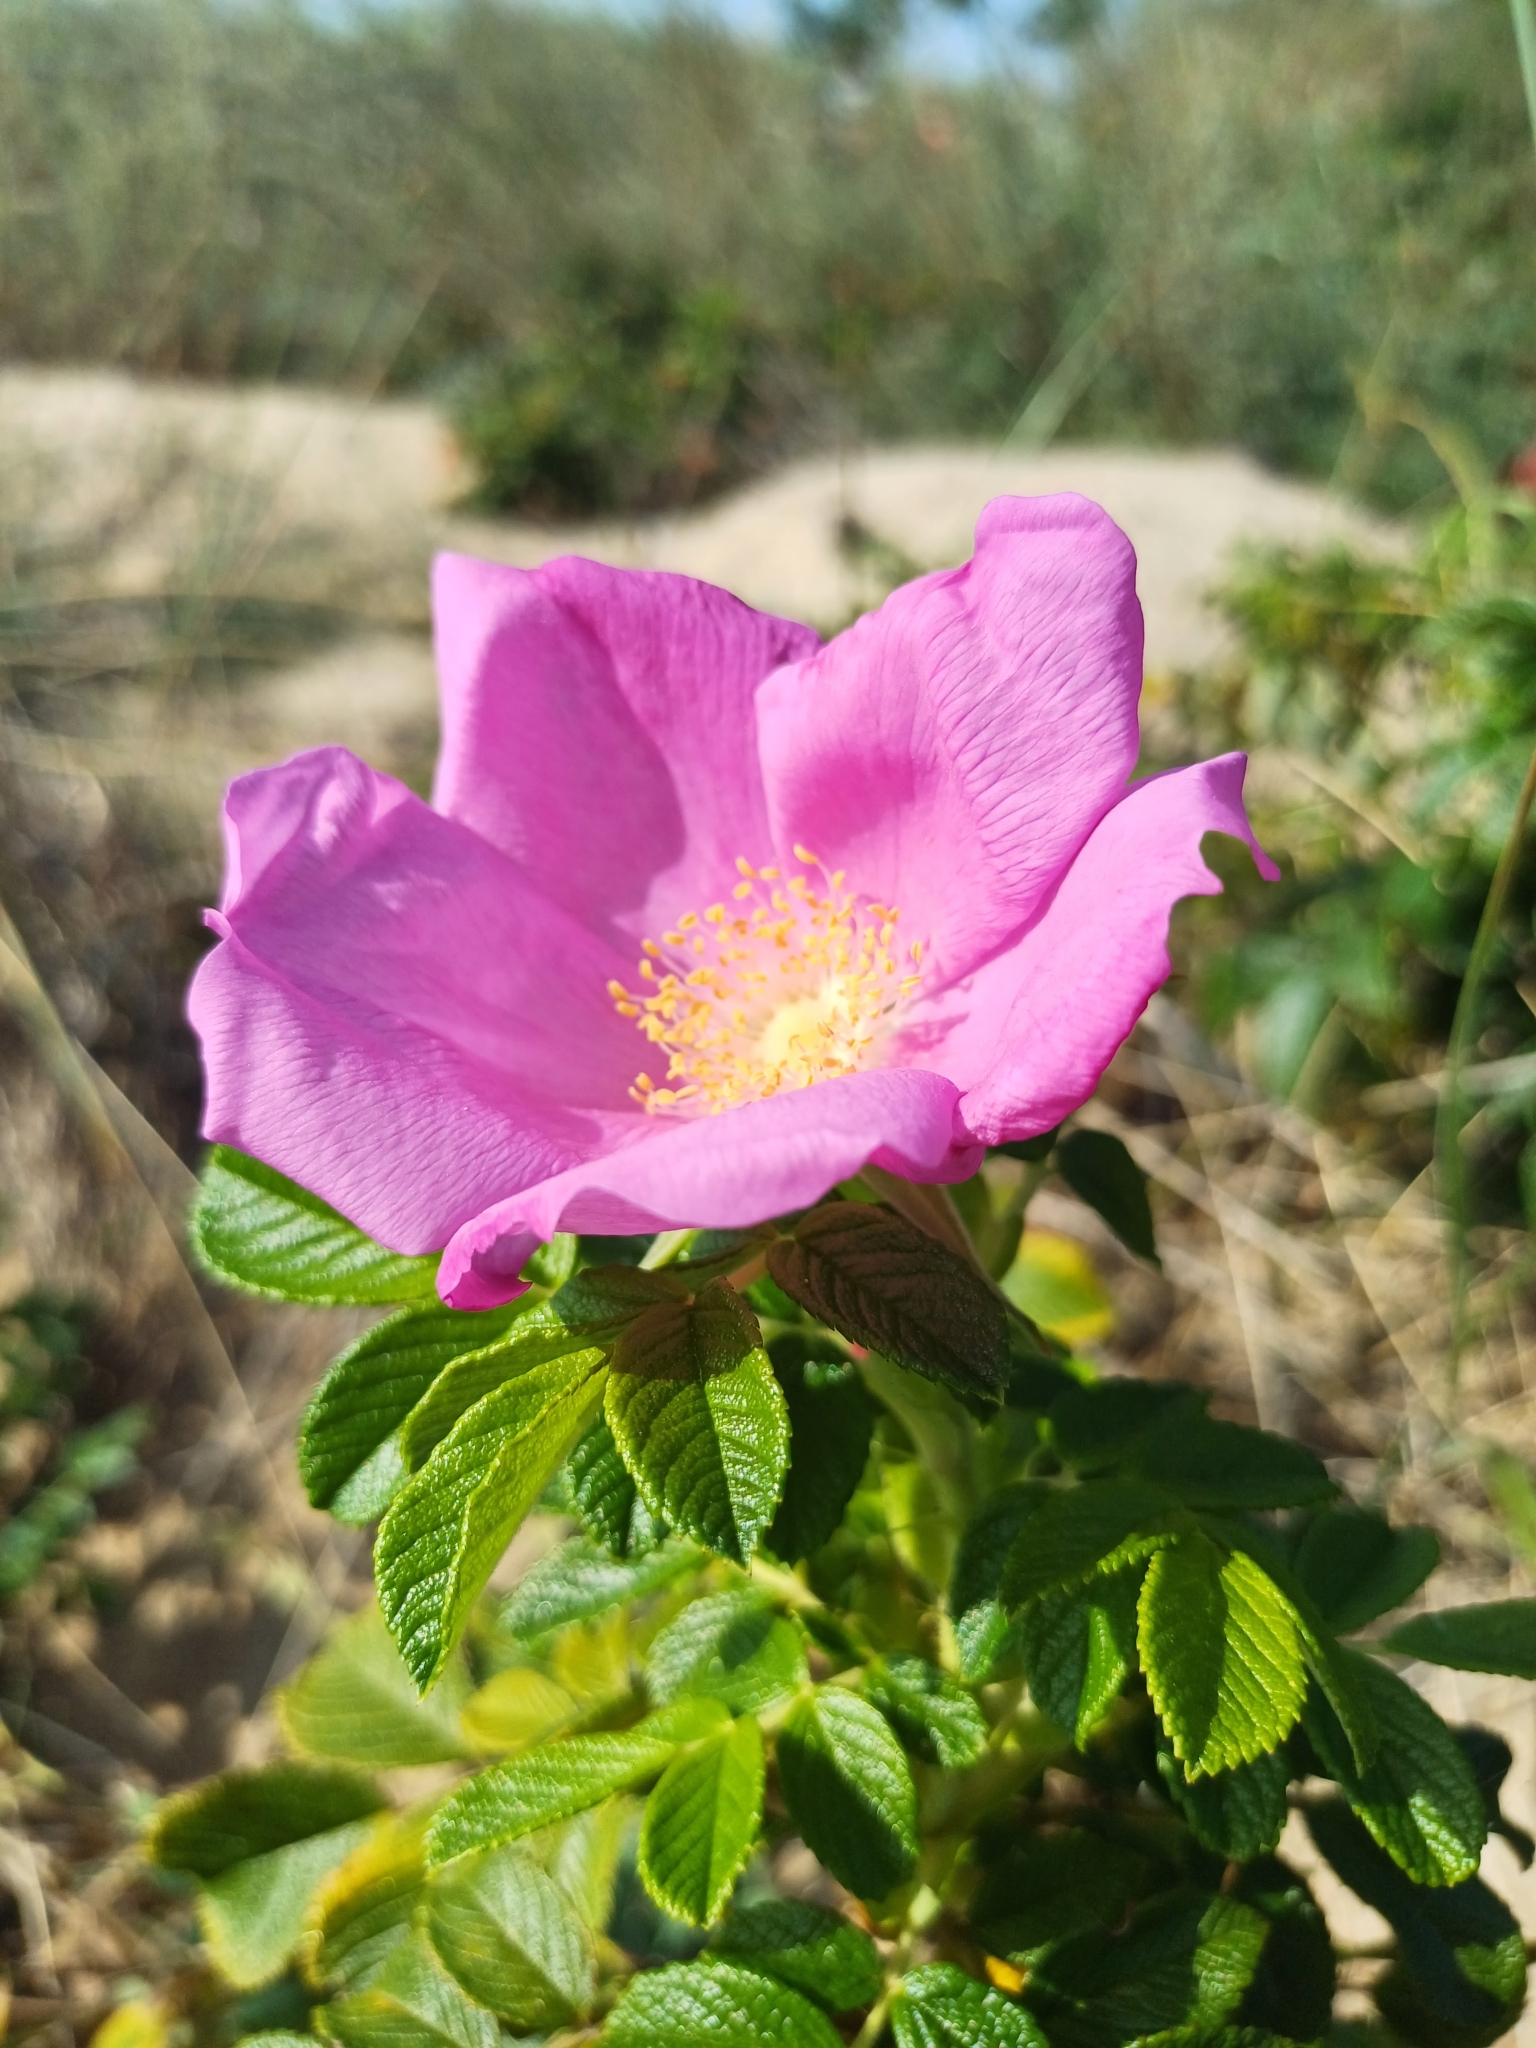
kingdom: Plantae
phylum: Tracheophyta
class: Magnoliopsida
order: Rosales
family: Rosaceae
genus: Rosa
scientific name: Rosa rugosa
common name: Japanese rose
